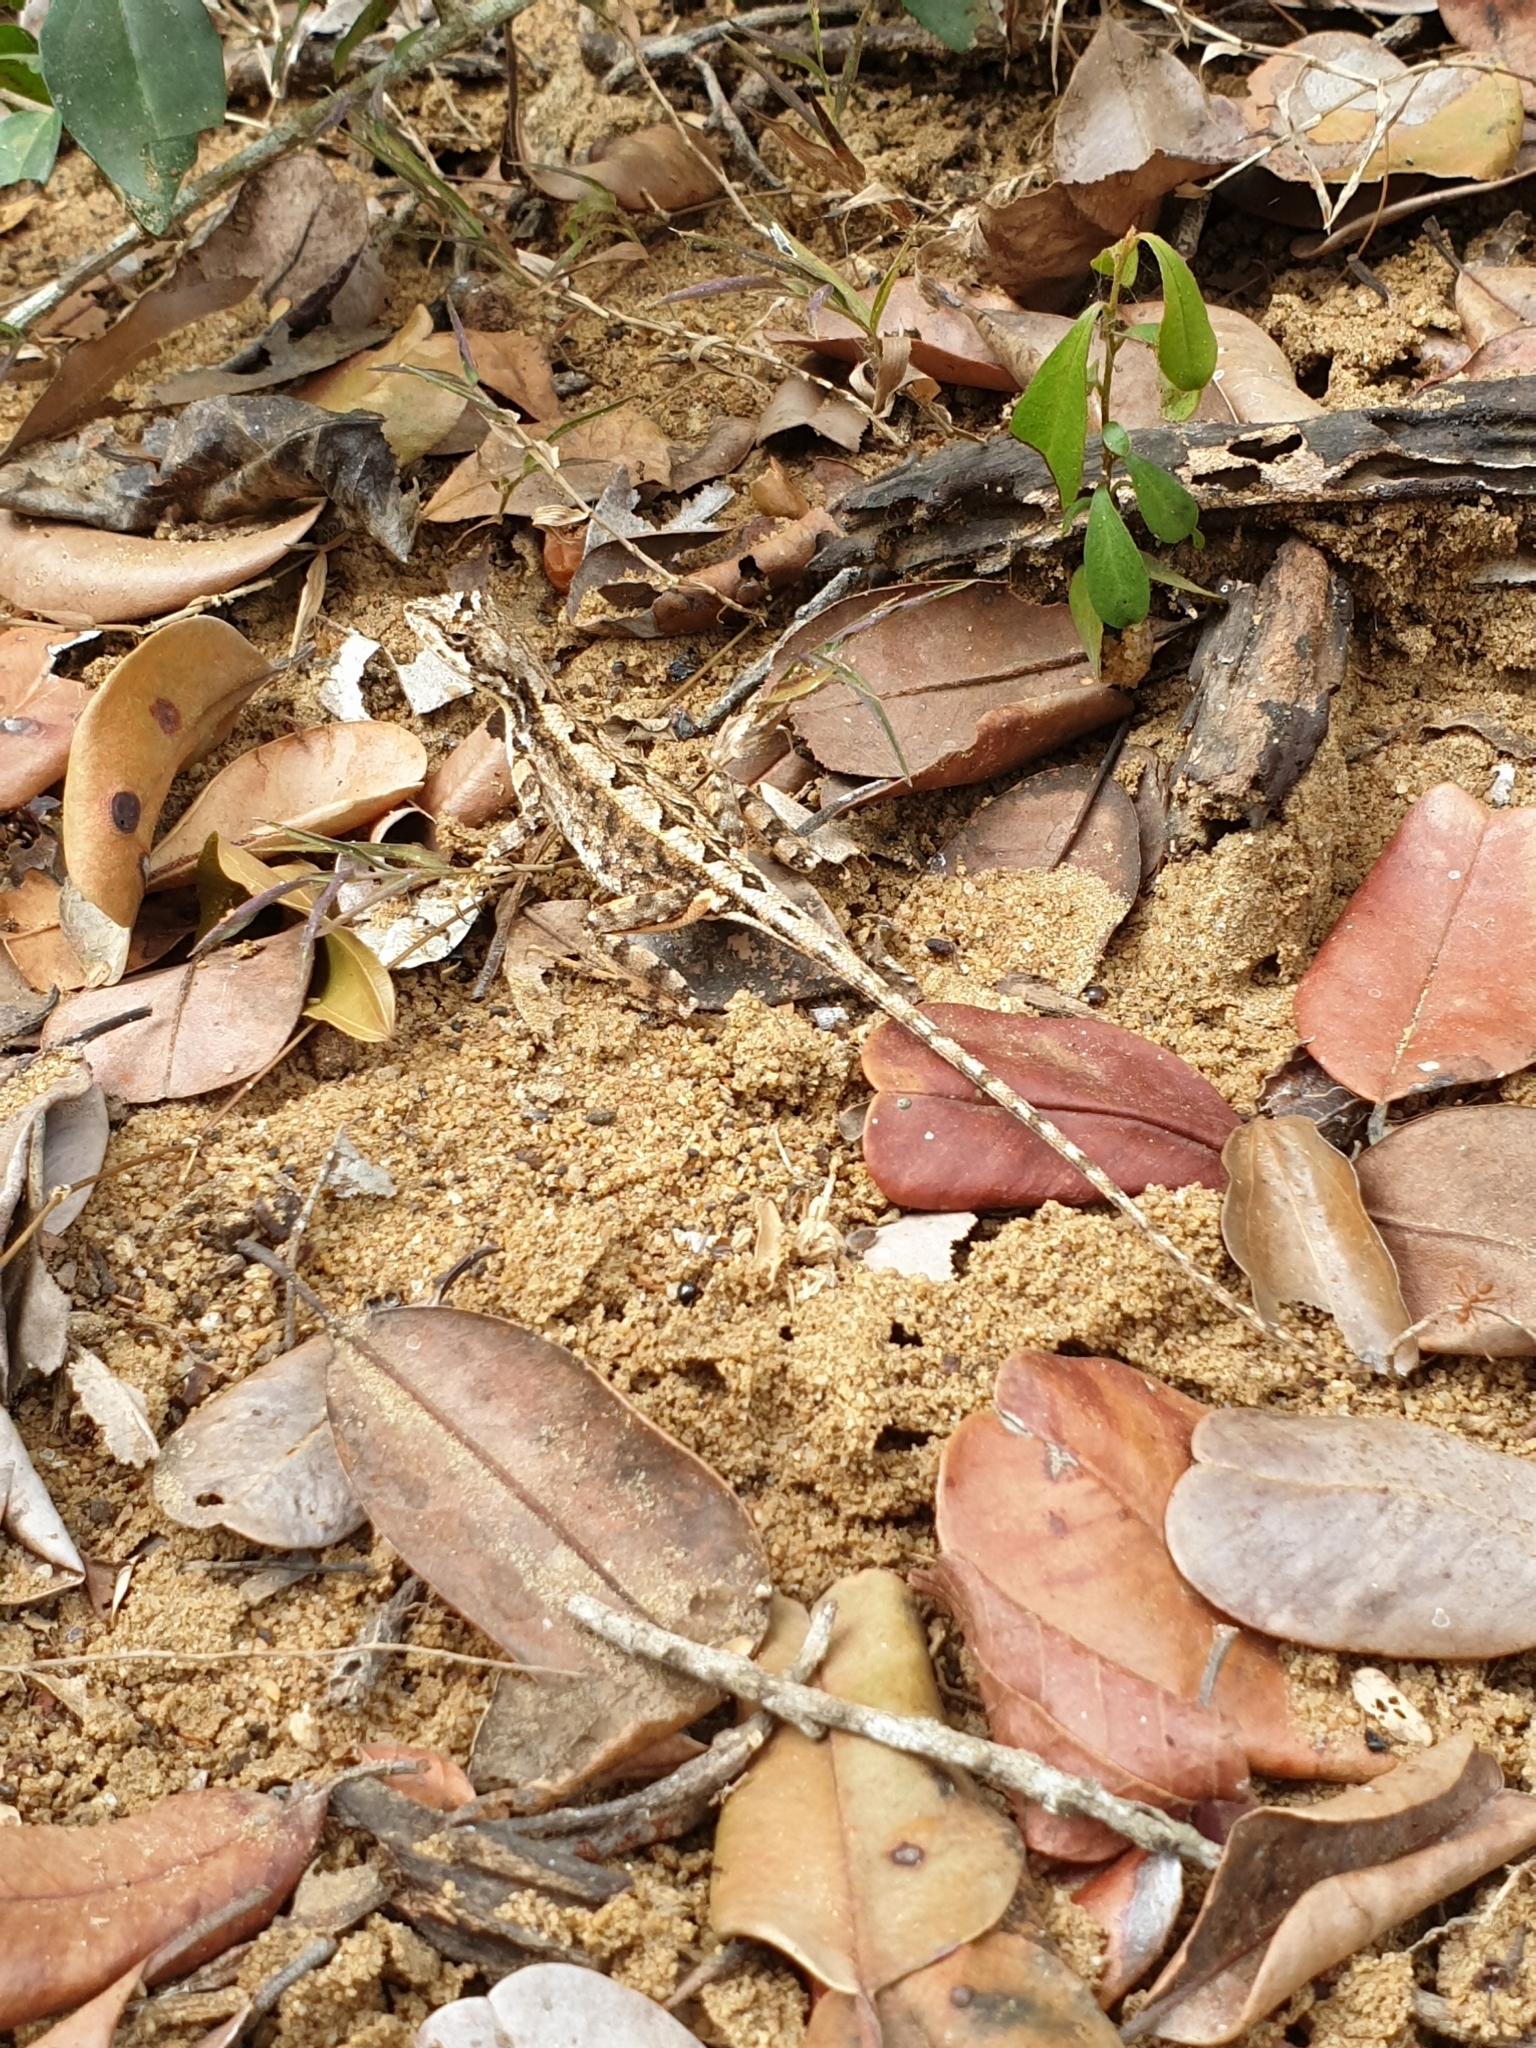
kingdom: Animalia
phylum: Chordata
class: Squamata
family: Agamidae
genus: Sitana
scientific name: Sitana devakai
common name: Devaka’s fan-throated lizard
